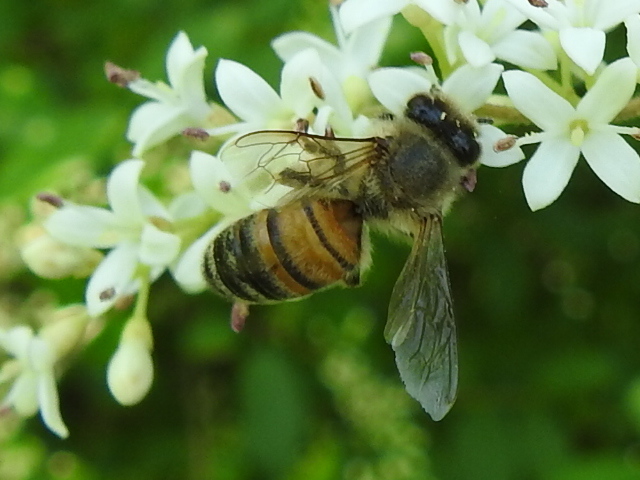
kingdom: Animalia
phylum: Arthropoda
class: Insecta
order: Hymenoptera
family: Apidae
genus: Apis
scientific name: Apis mellifera
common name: Honey bee
